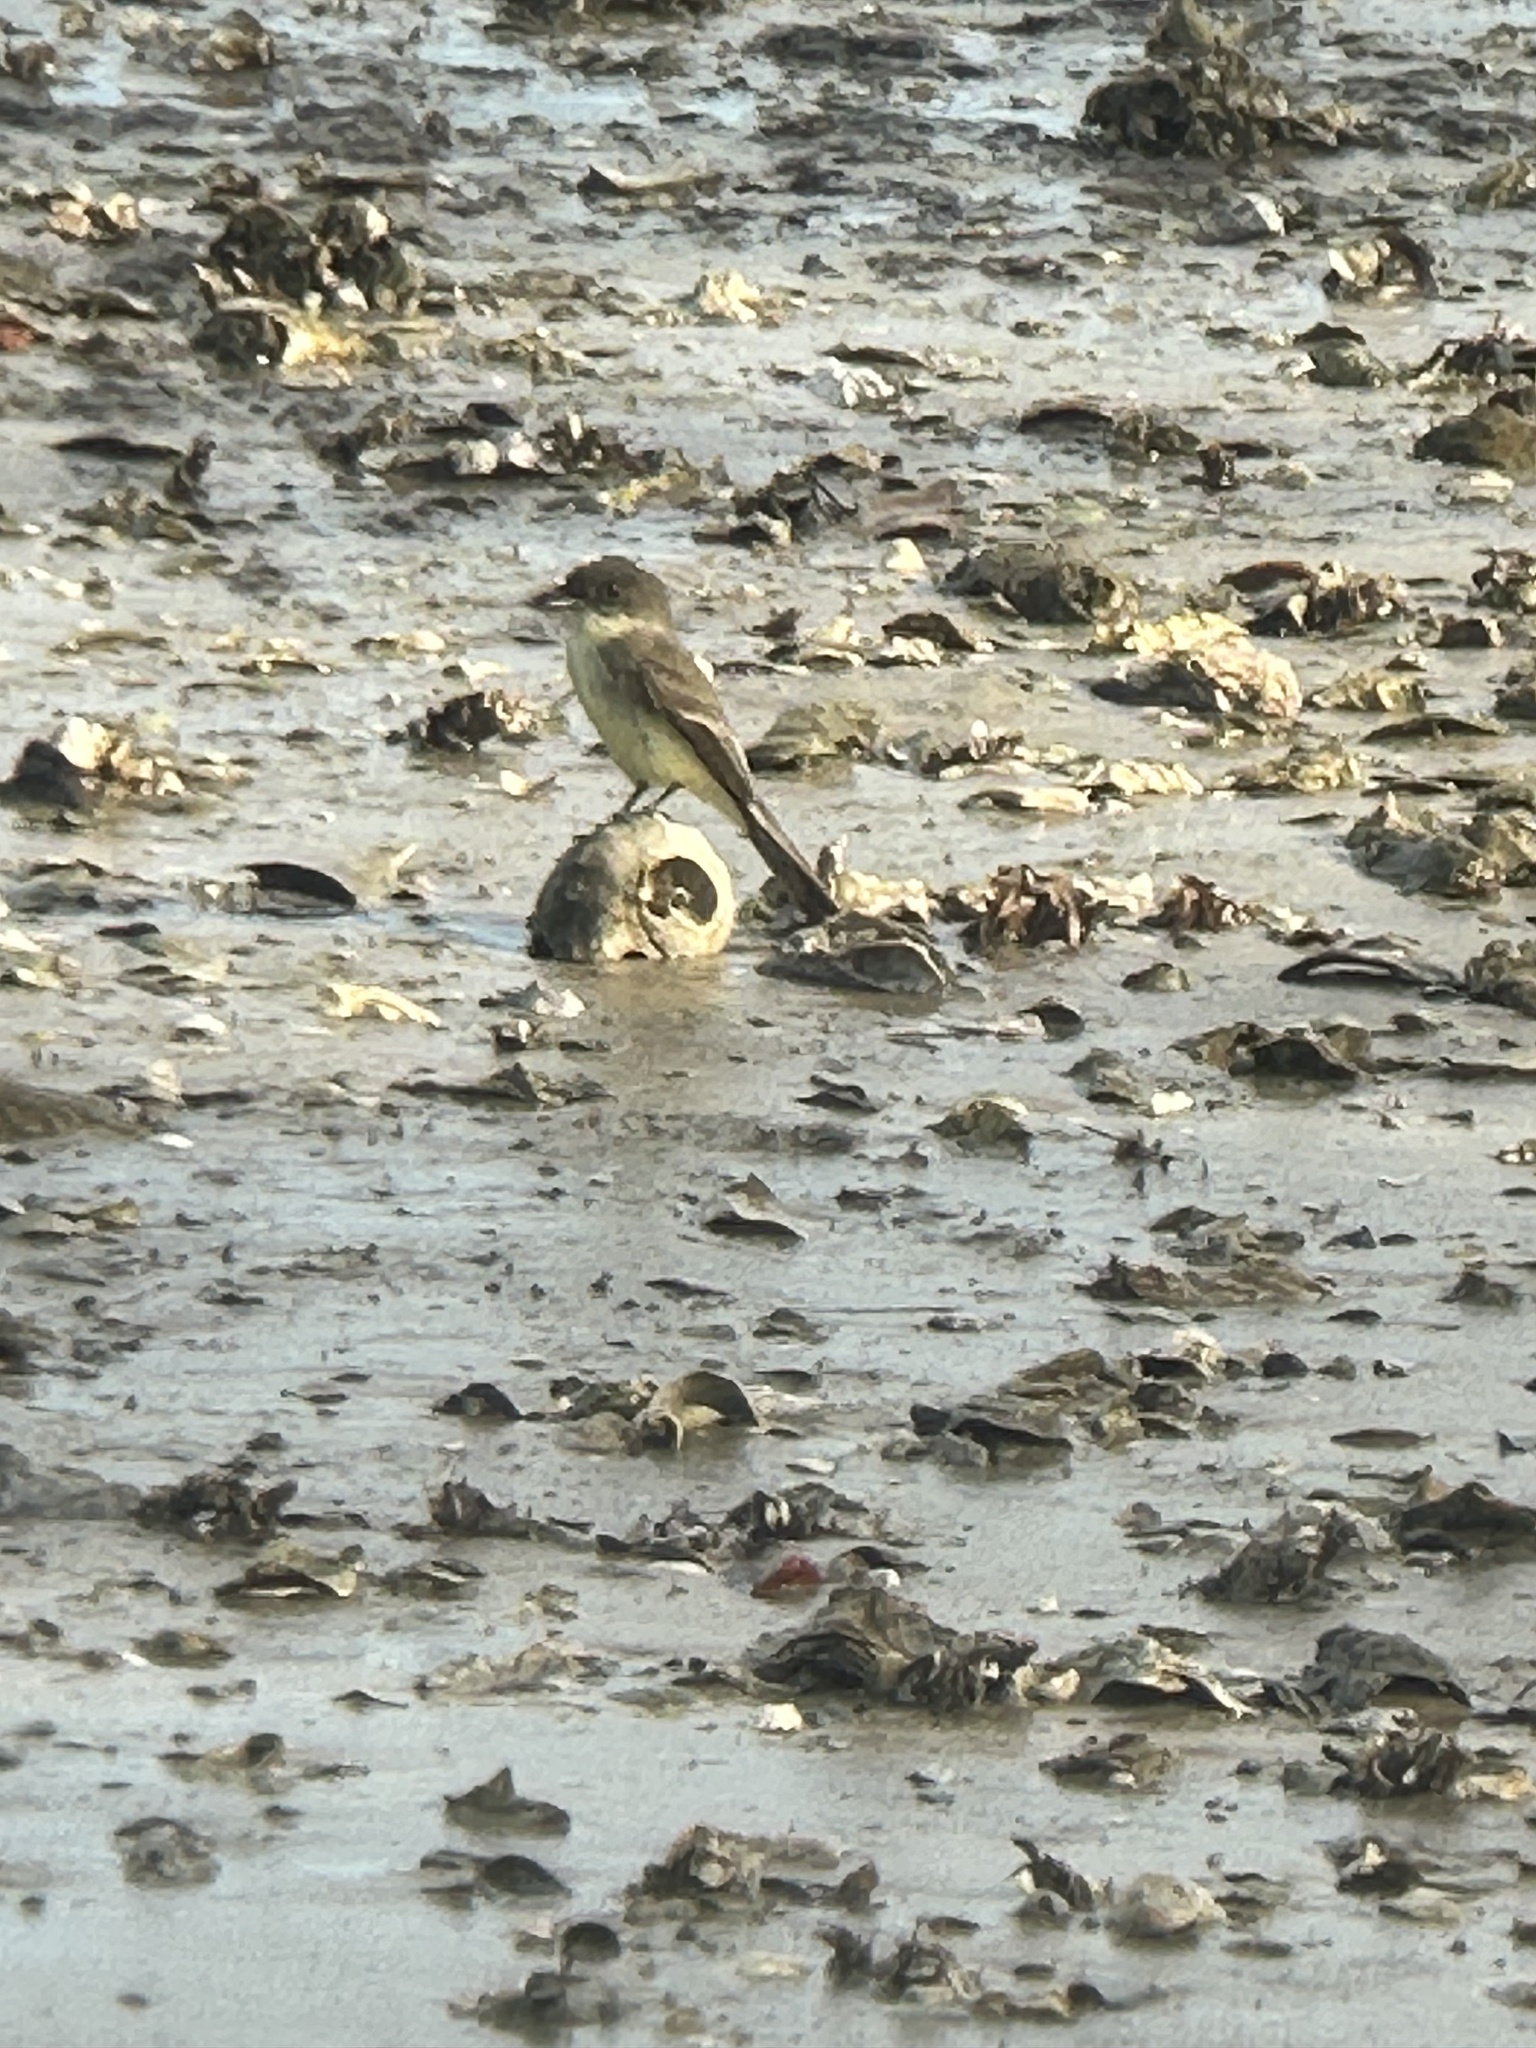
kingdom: Animalia
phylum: Chordata
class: Aves
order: Passeriformes
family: Tyrannidae
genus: Sayornis
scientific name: Sayornis phoebe
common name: Eastern phoebe
